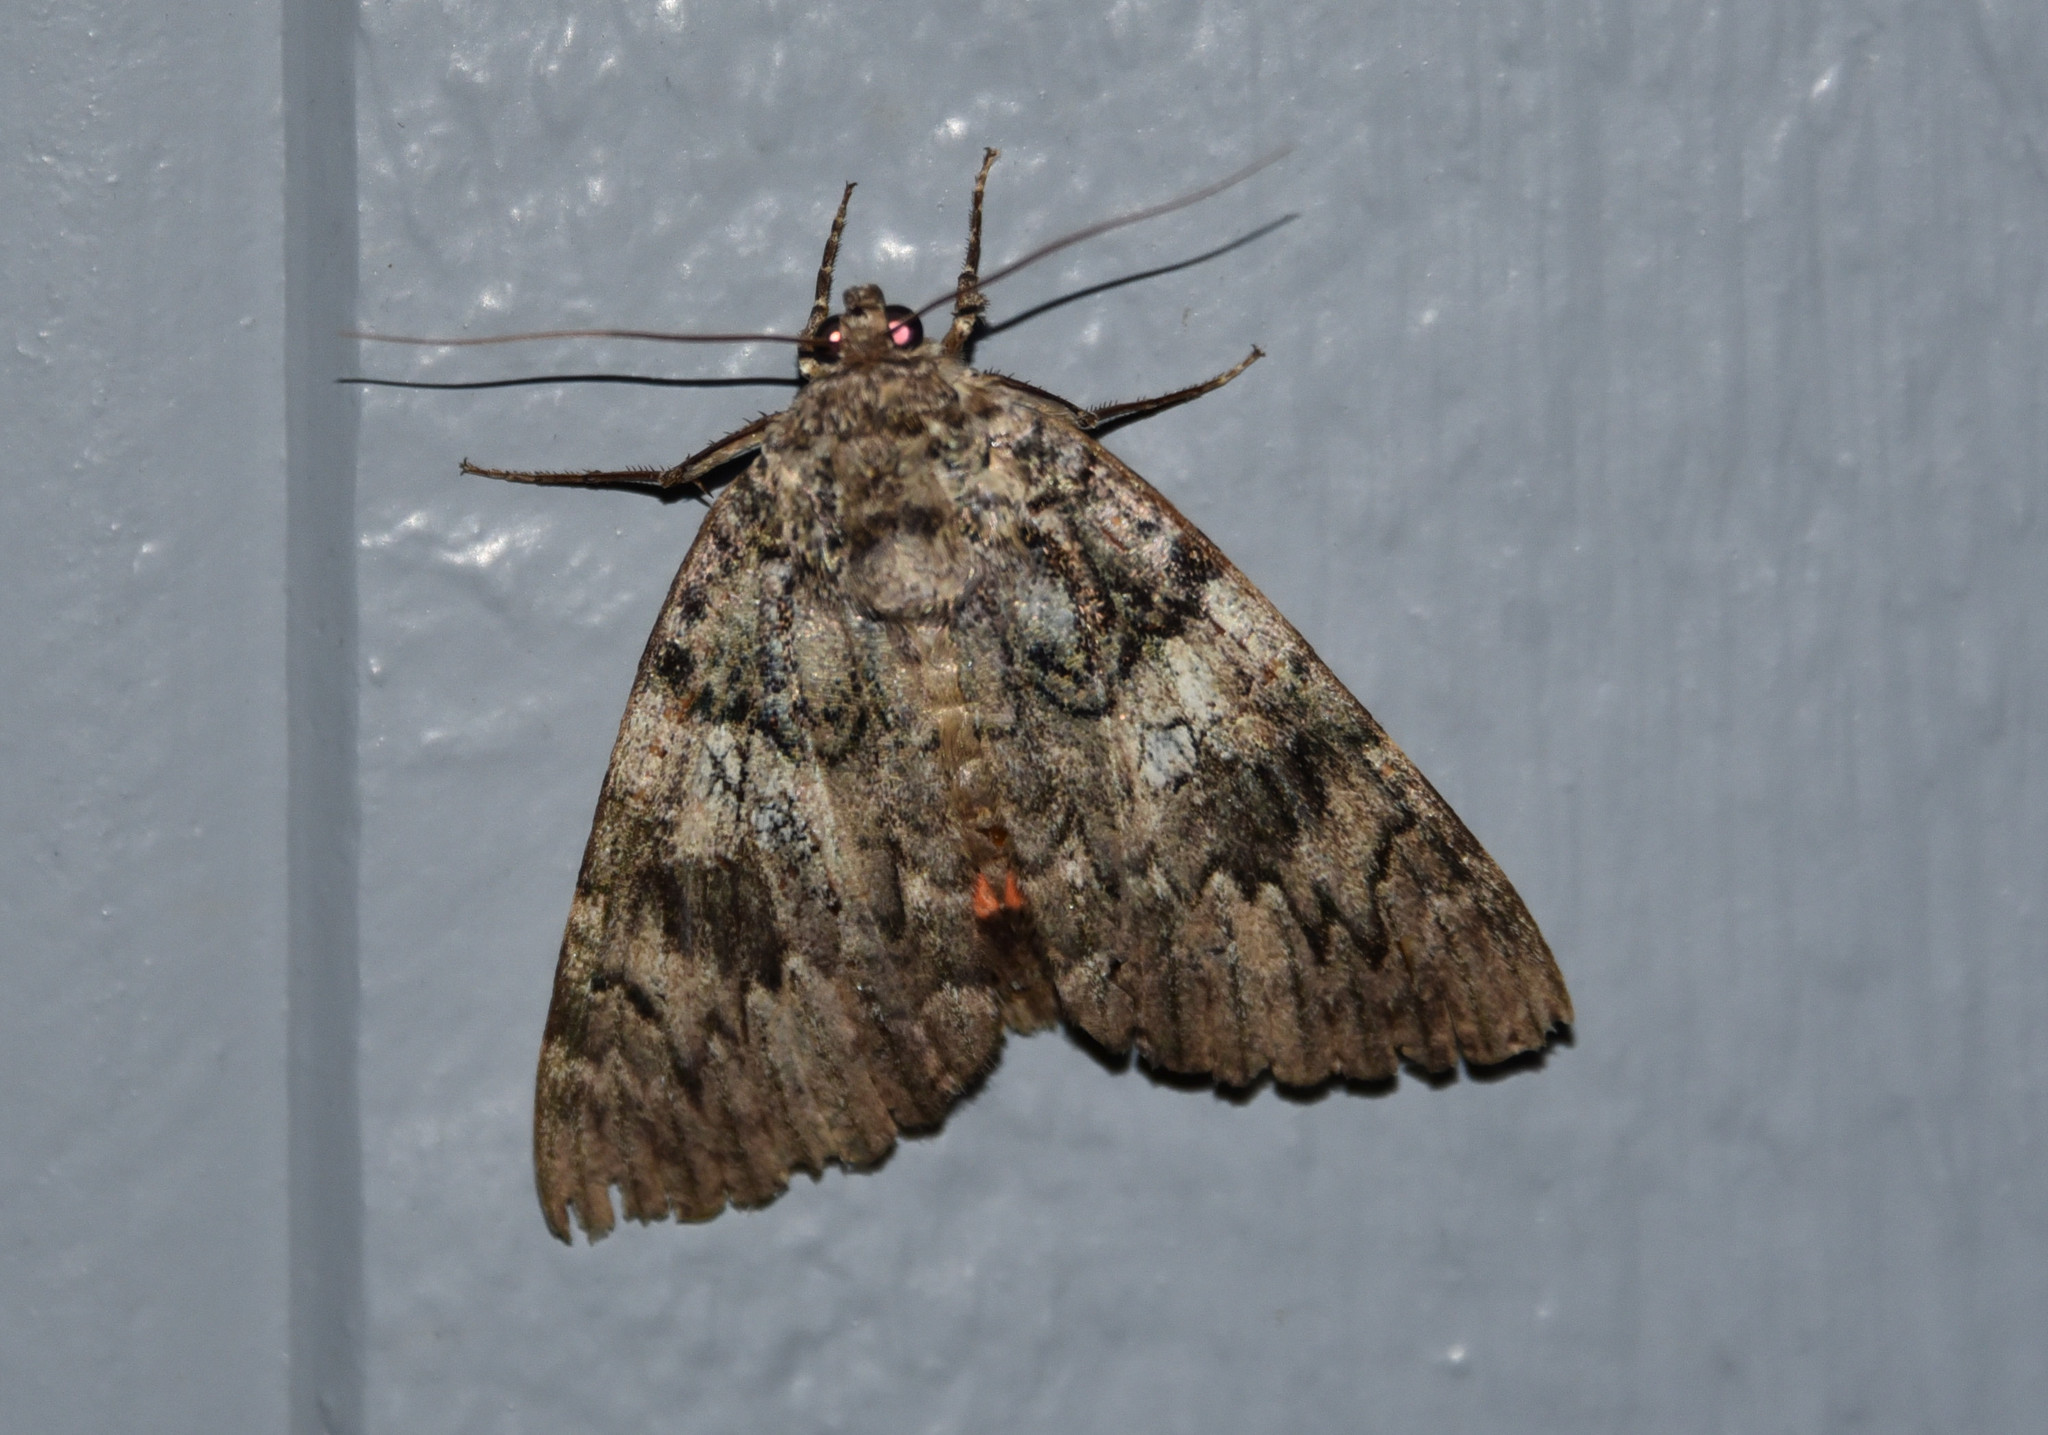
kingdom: Animalia
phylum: Arthropoda
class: Insecta
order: Lepidoptera
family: Erebidae
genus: Catocala
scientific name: Catocala ilia
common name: Ilia underwing
